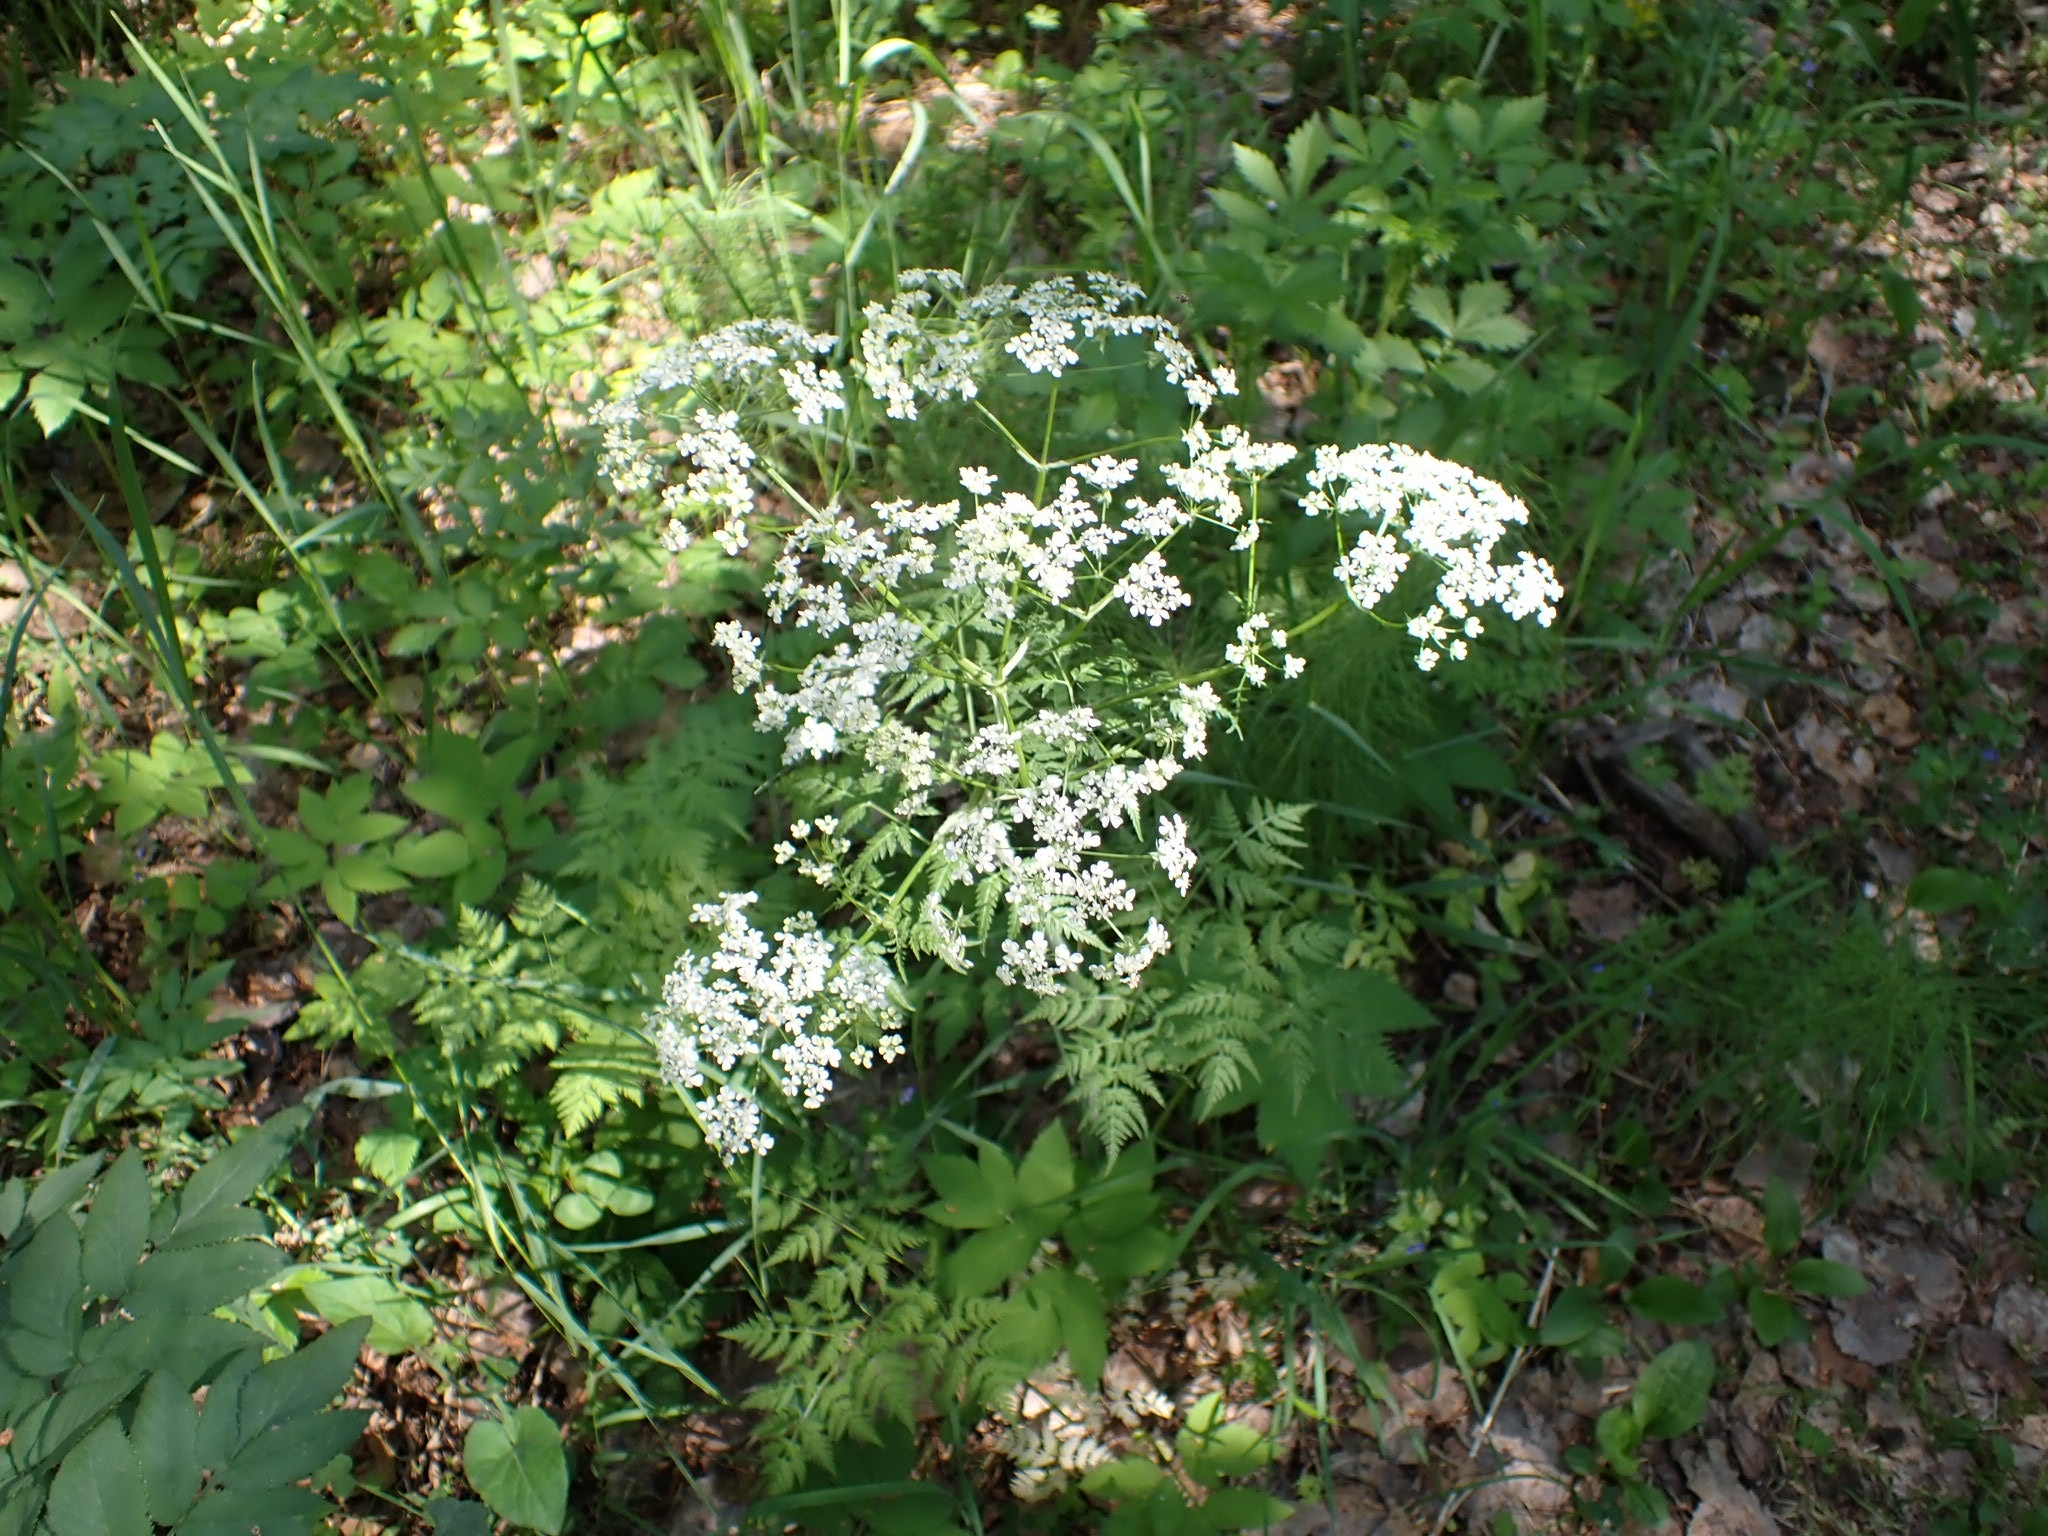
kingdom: Plantae
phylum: Tracheophyta
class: Magnoliopsida
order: Apiales
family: Apiaceae
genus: Anthriscus
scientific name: Anthriscus sylvestris
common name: Cow parsley
